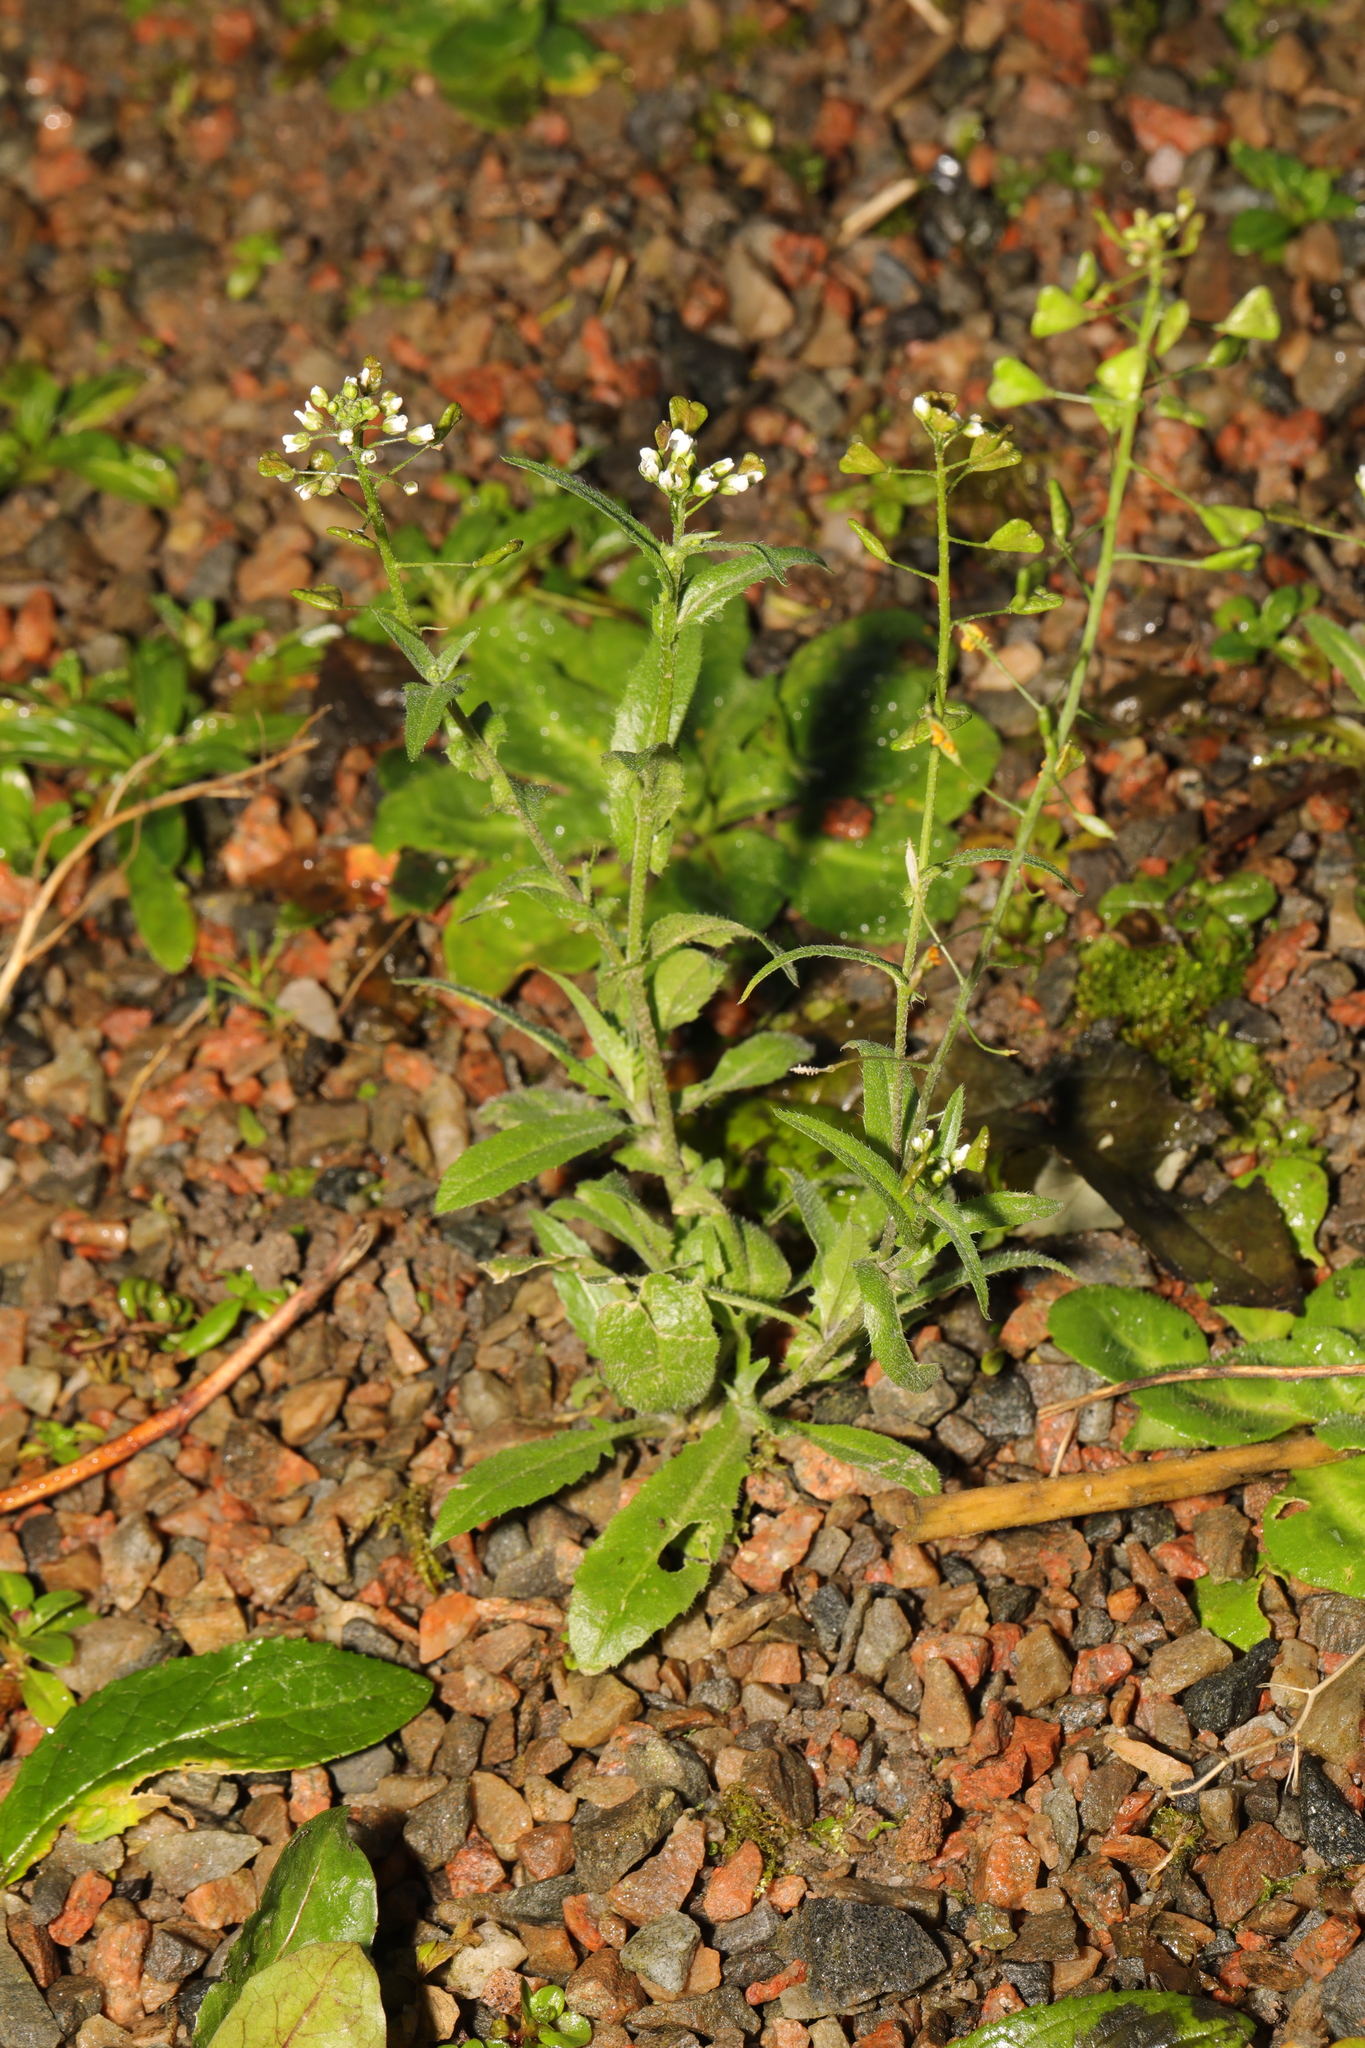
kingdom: Plantae
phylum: Tracheophyta
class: Magnoliopsida
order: Brassicales
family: Brassicaceae
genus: Capsella
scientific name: Capsella bursa-pastoris
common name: Shepherd's purse
